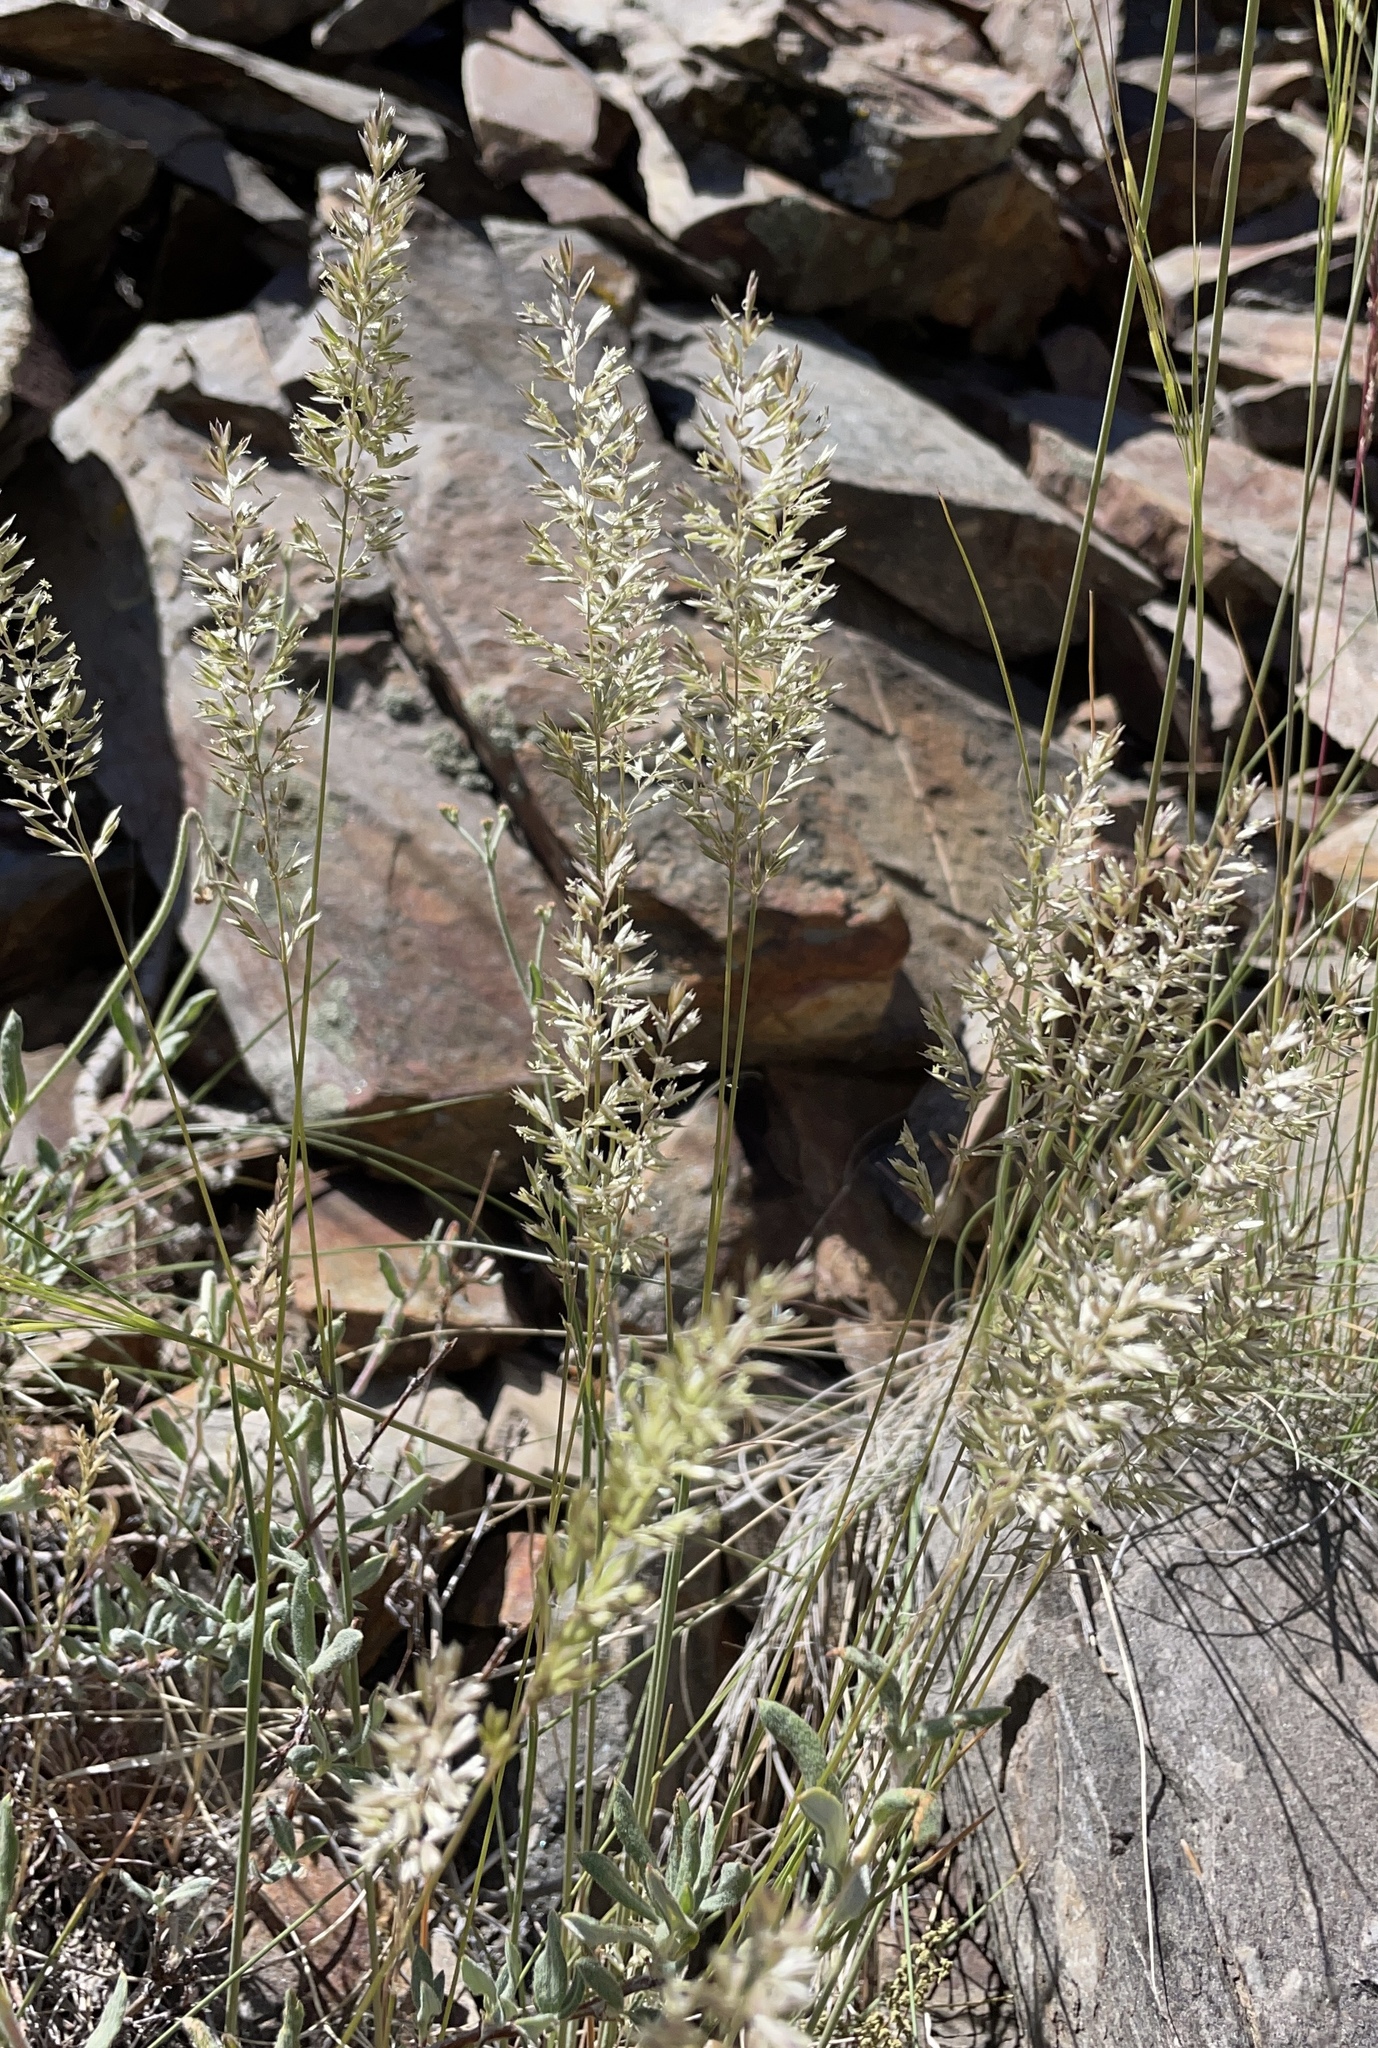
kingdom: Plantae
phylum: Tracheophyta
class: Liliopsida
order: Poales
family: Poaceae
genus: Koeleria
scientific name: Koeleria macrantha
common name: Crested hair-grass
